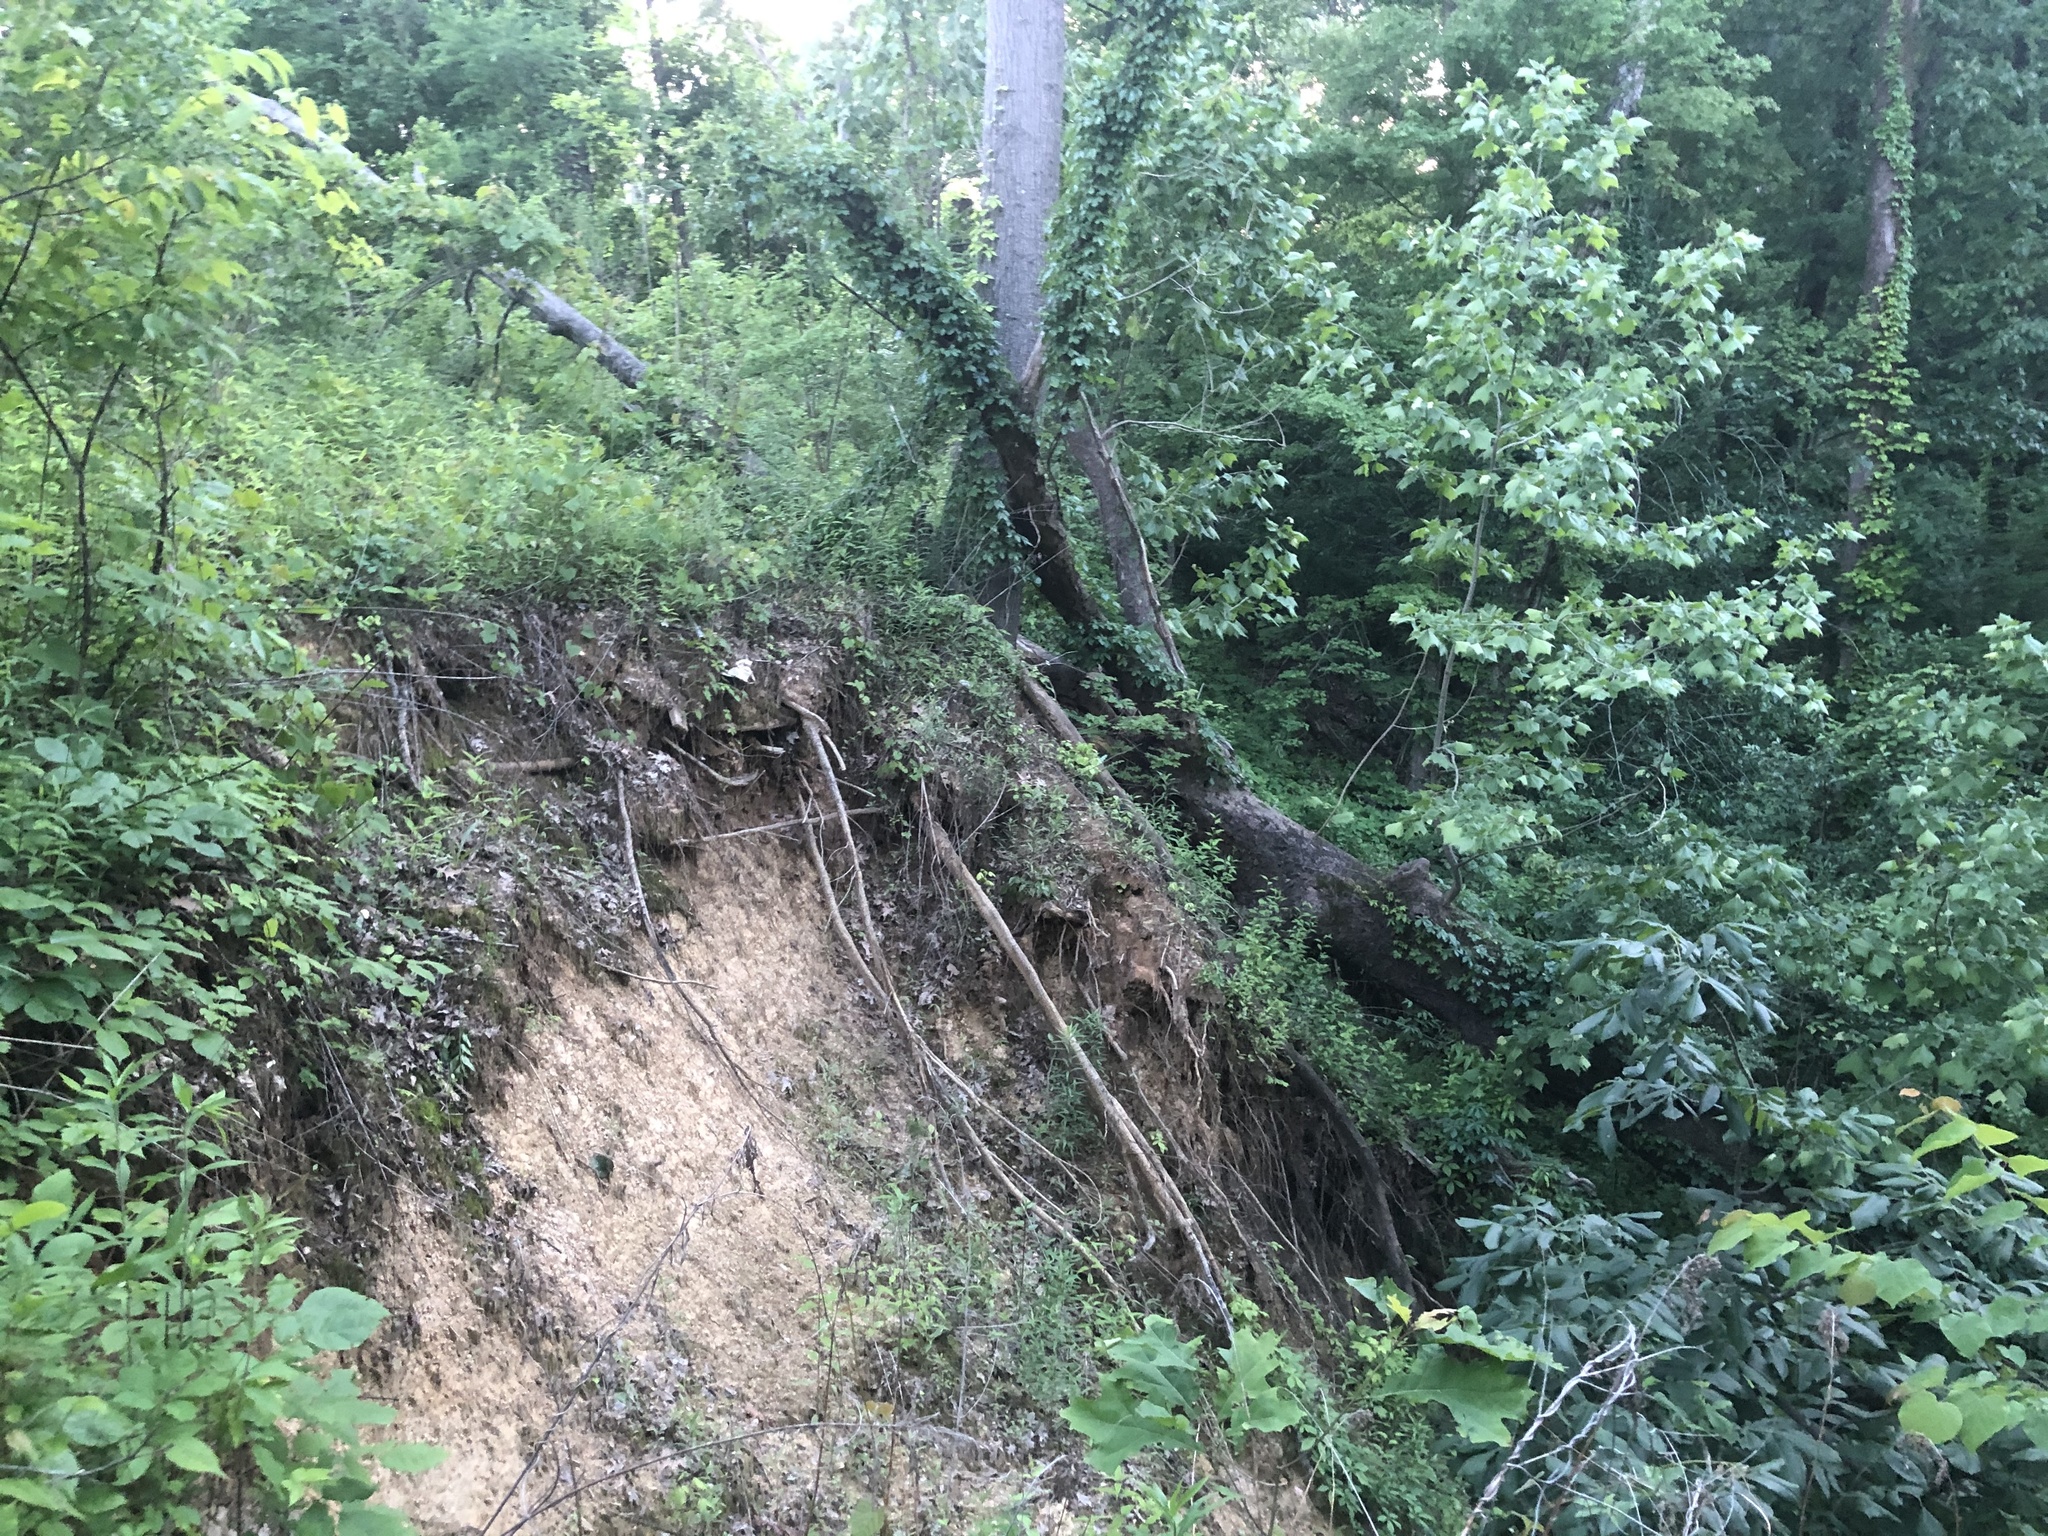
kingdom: Plantae
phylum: Tracheophyta
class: Magnoliopsida
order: Sapindales
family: Sapindaceae
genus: Acer
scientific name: Acer floridanum
